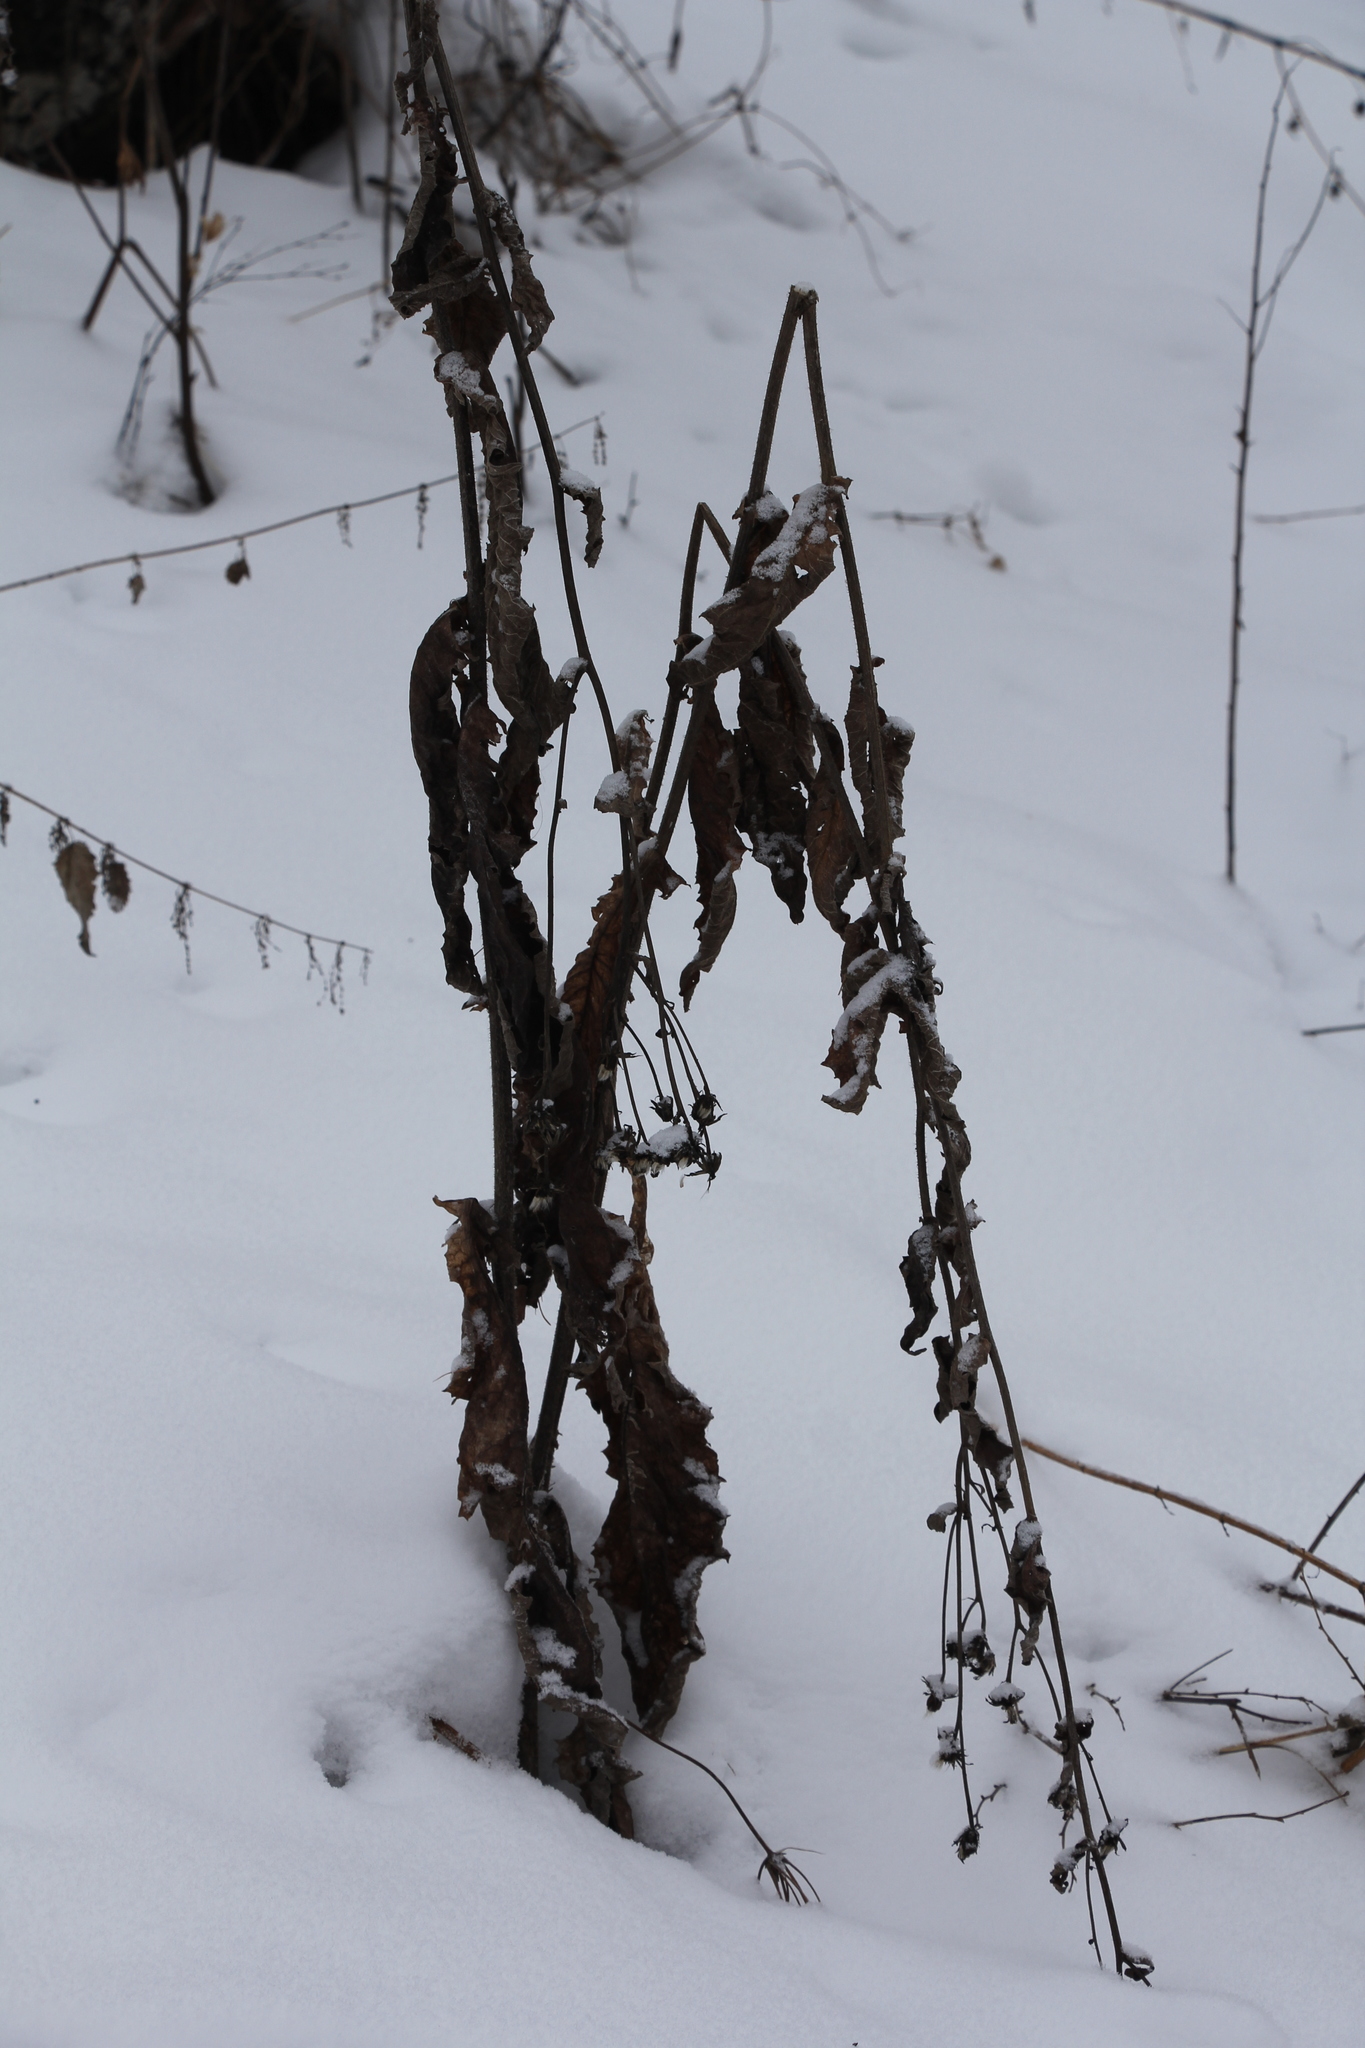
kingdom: Plantae
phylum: Tracheophyta
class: Magnoliopsida
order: Asterales
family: Asteraceae
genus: Crepis
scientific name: Crepis sibirica
